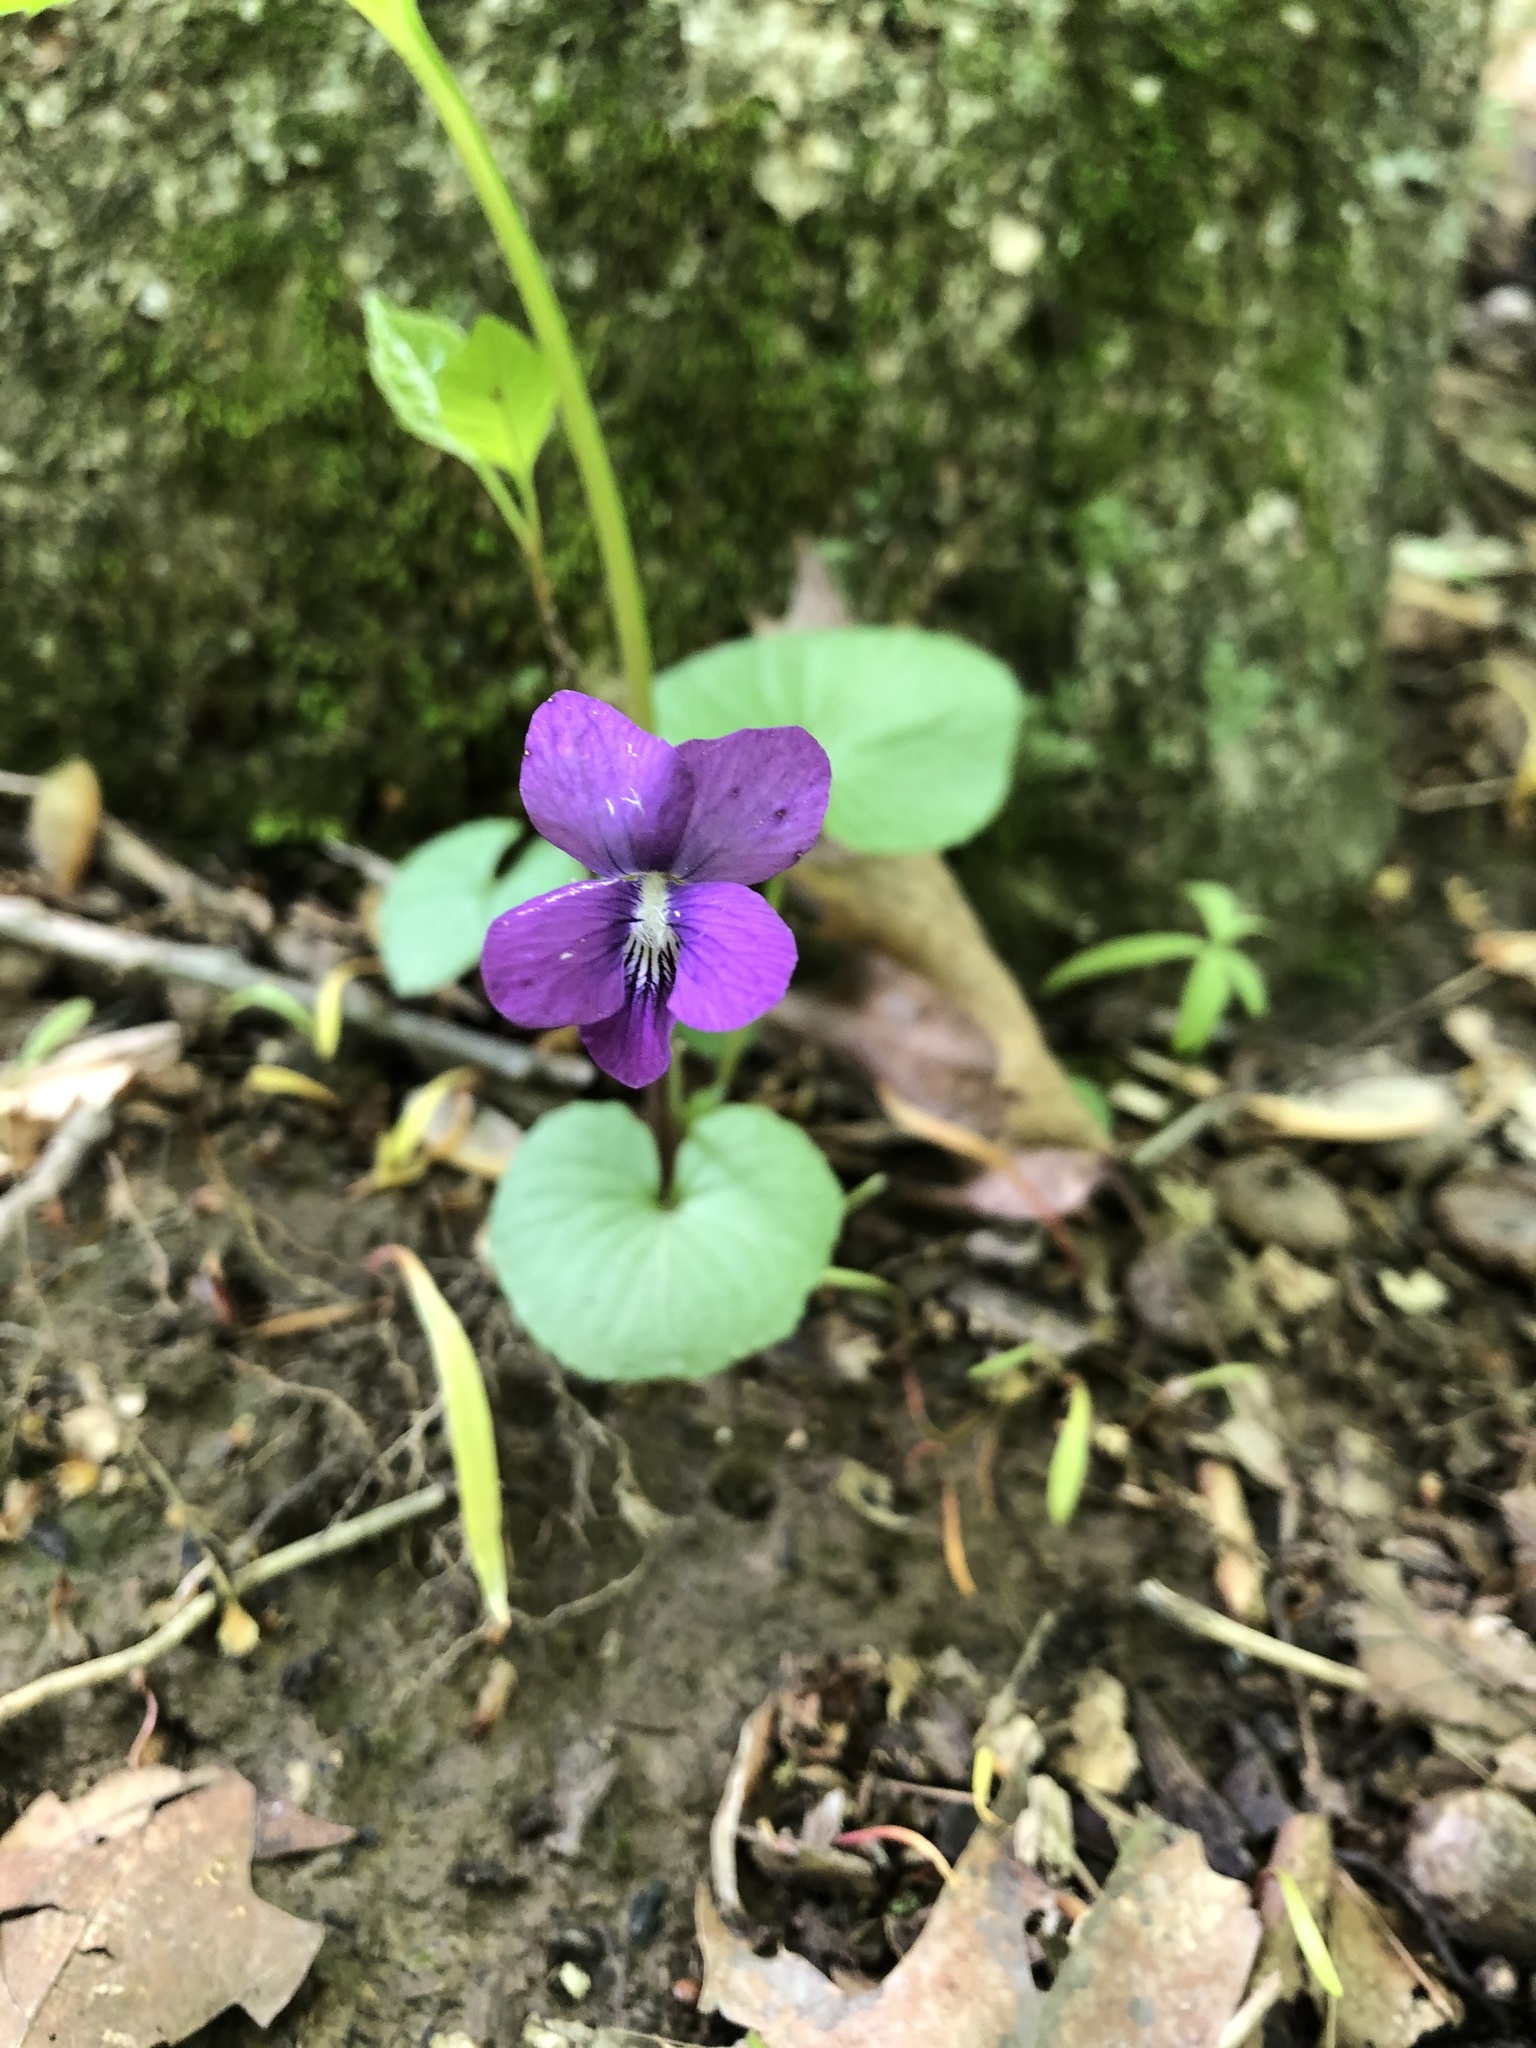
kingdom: Plantae
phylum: Tracheophyta
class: Magnoliopsida
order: Malpighiales
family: Violaceae
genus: Viola
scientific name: Viola sororia
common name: Dooryard violet
